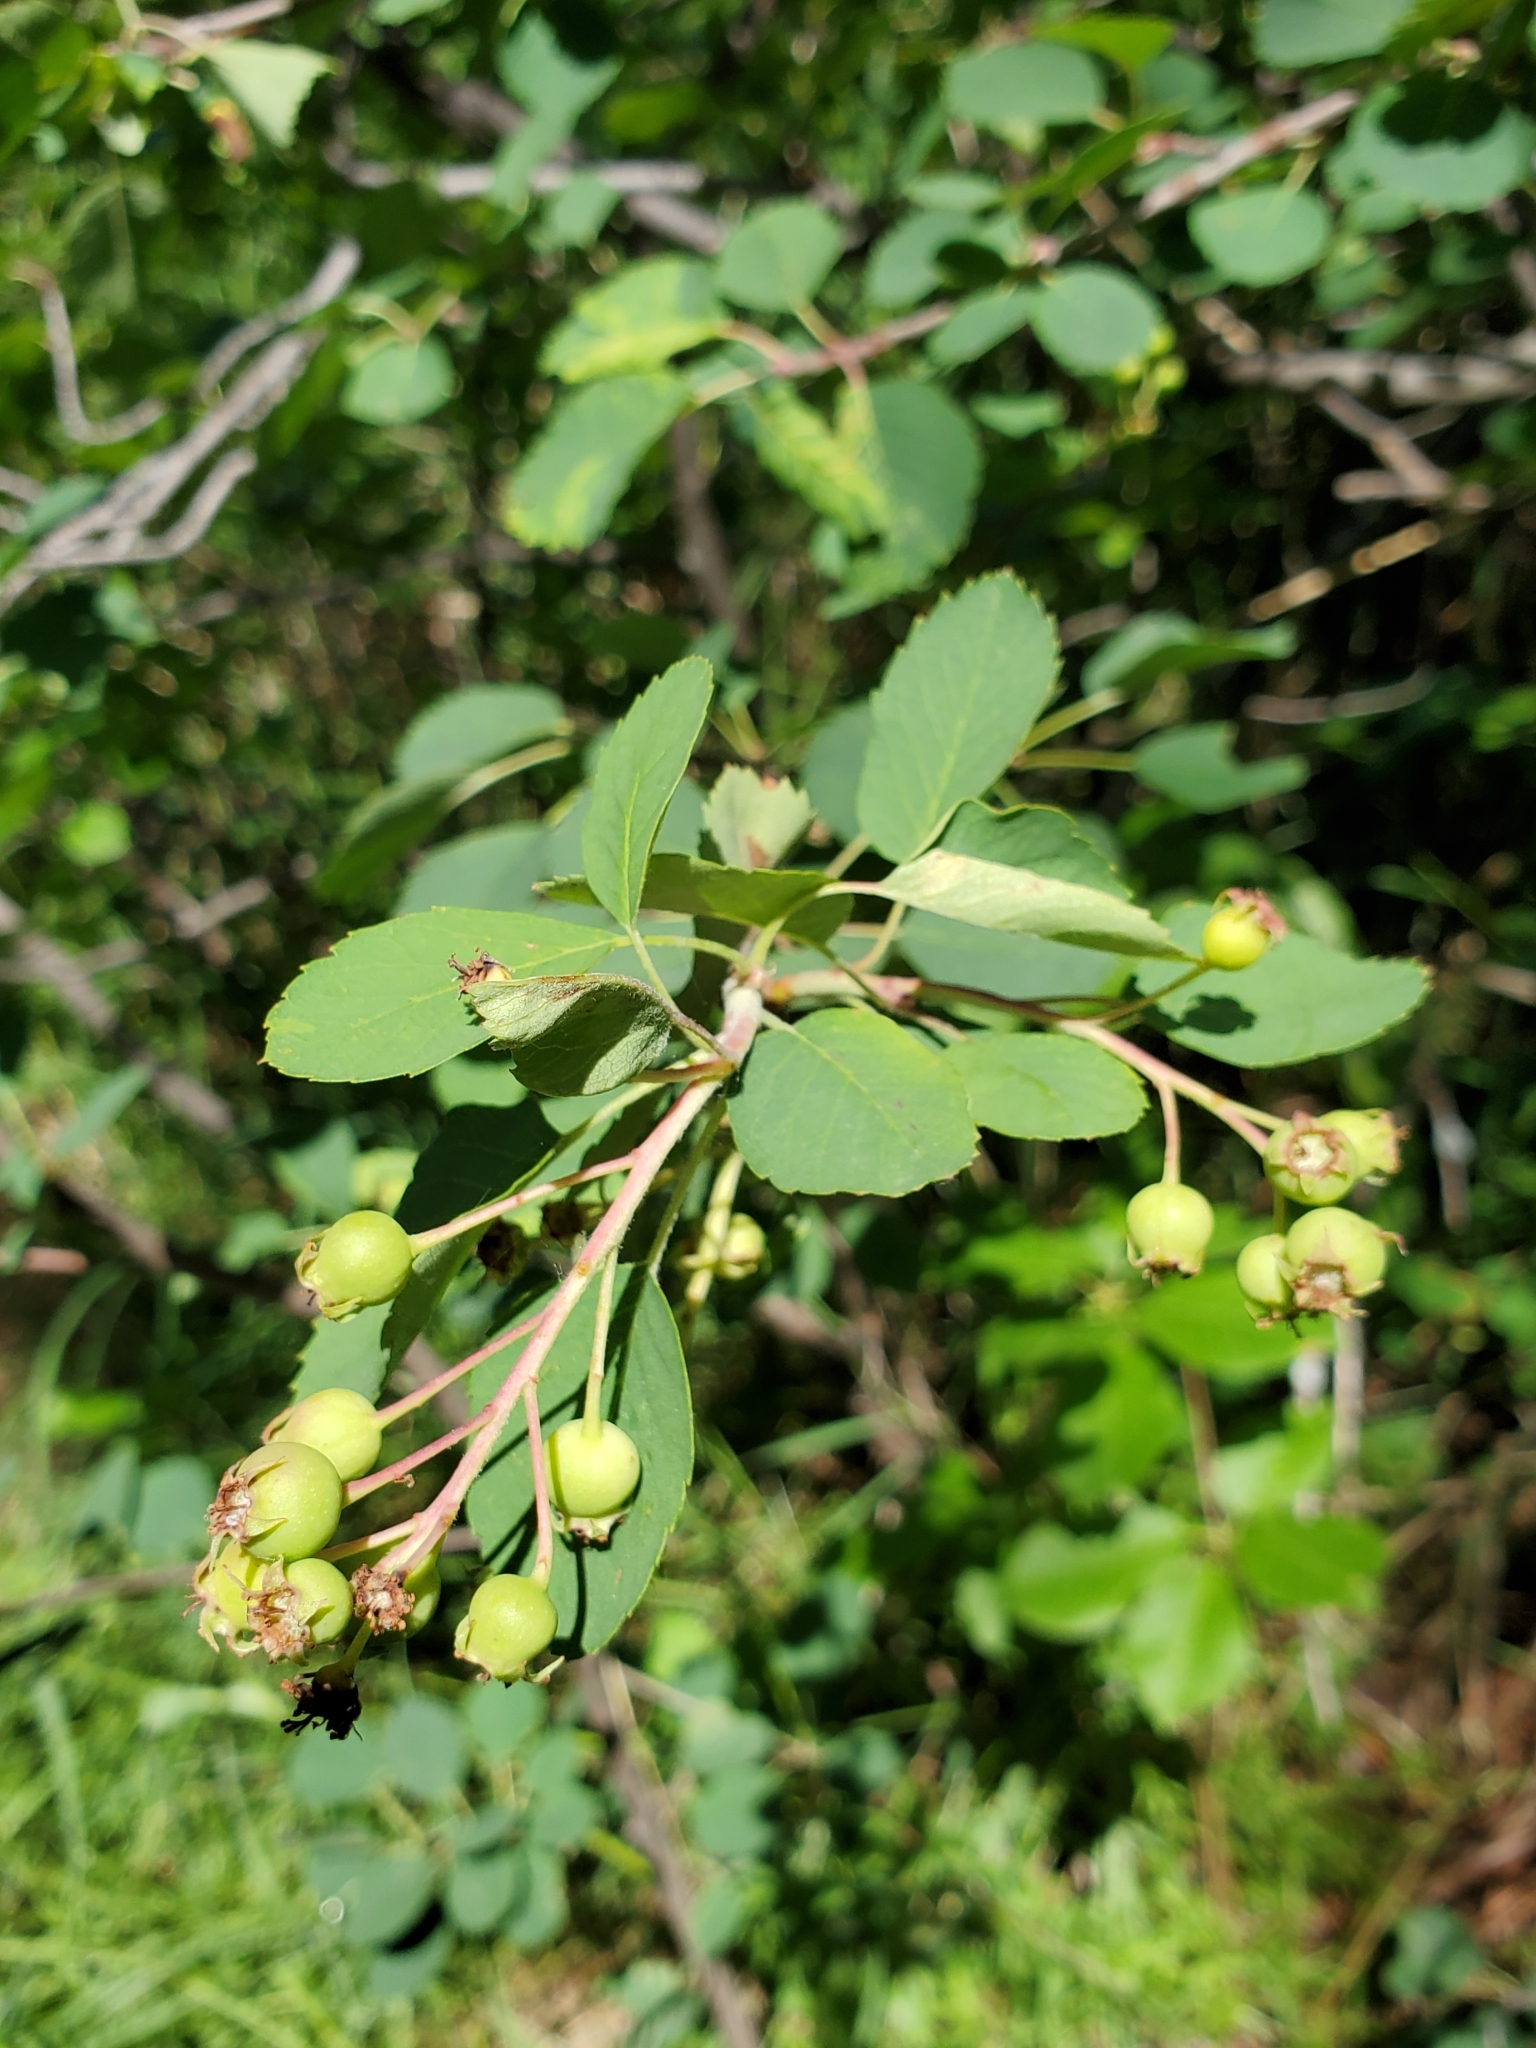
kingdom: Plantae
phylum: Tracheophyta
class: Magnoliopsida
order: Rosales
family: Rosaceae
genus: Amelanchier
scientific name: Amelanchier alnifolia
